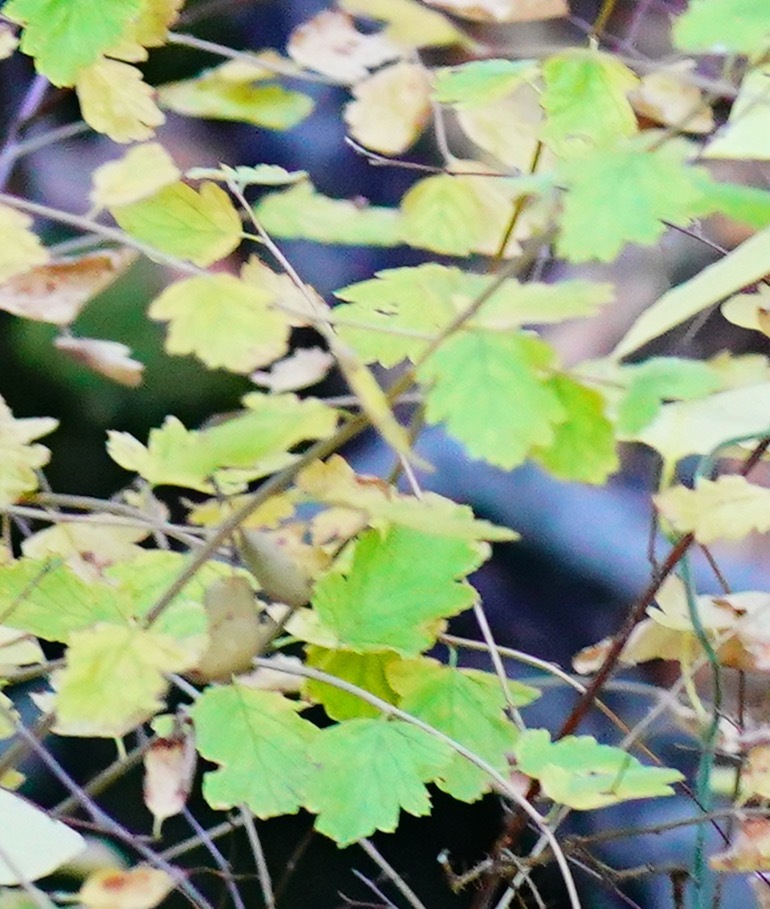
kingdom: Plantae
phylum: Tracheophyta
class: Magnoliopsida
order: Rosales
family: Rosaceae
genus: Holodiscus
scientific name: Holodiscus discolor
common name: Oceanspray
